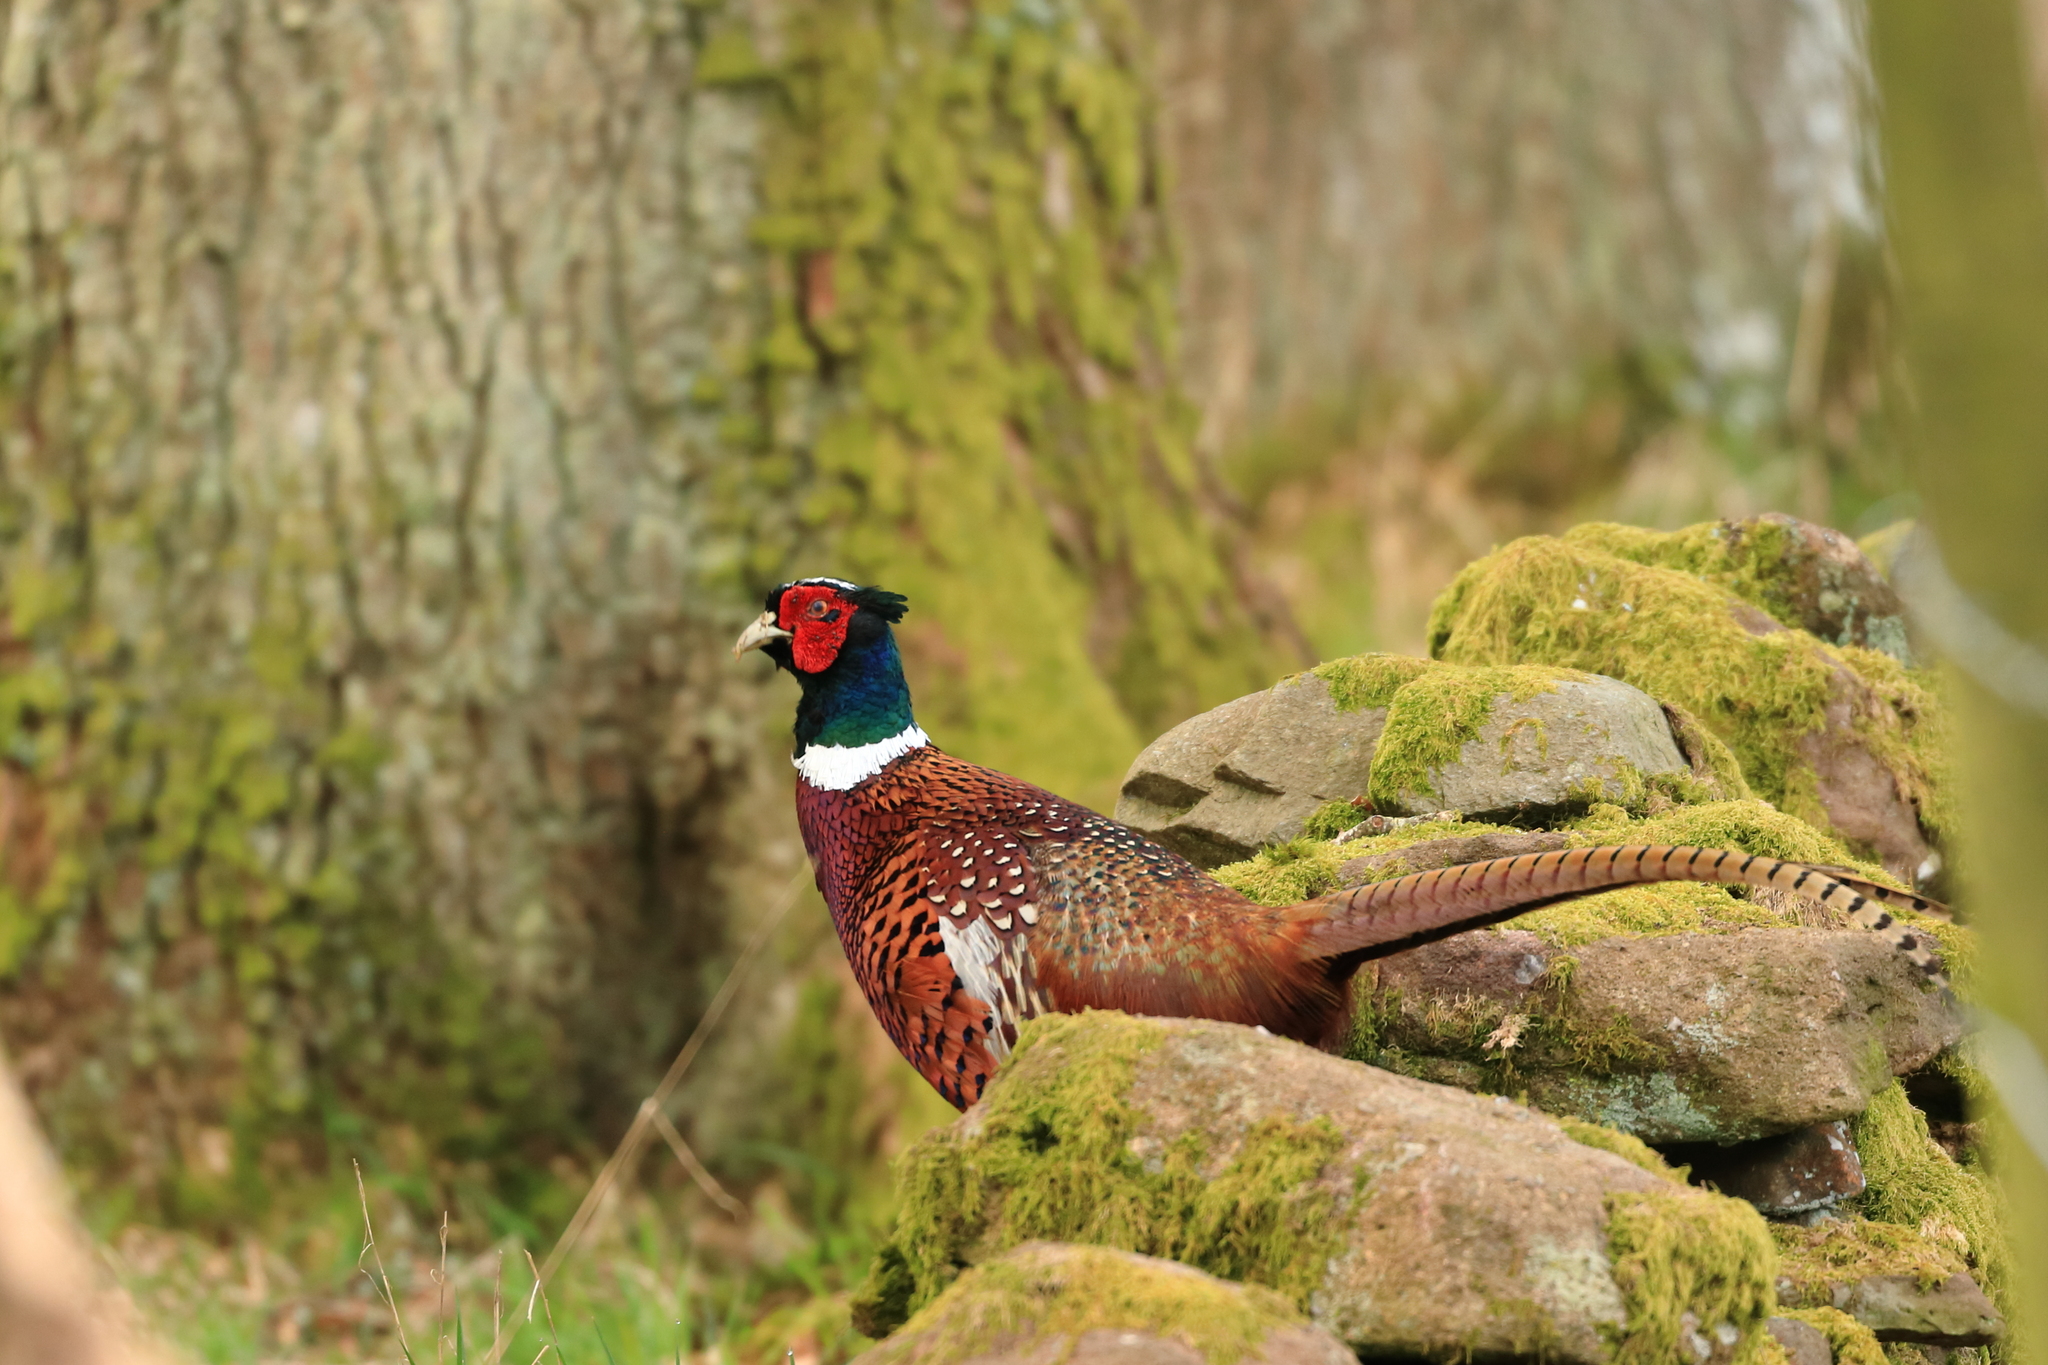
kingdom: Animalia
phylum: Chordata
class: Aves
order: Galliformes
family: Phasianidae
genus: Phasianus
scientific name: Phasianus colchicus
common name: Common pheasant
